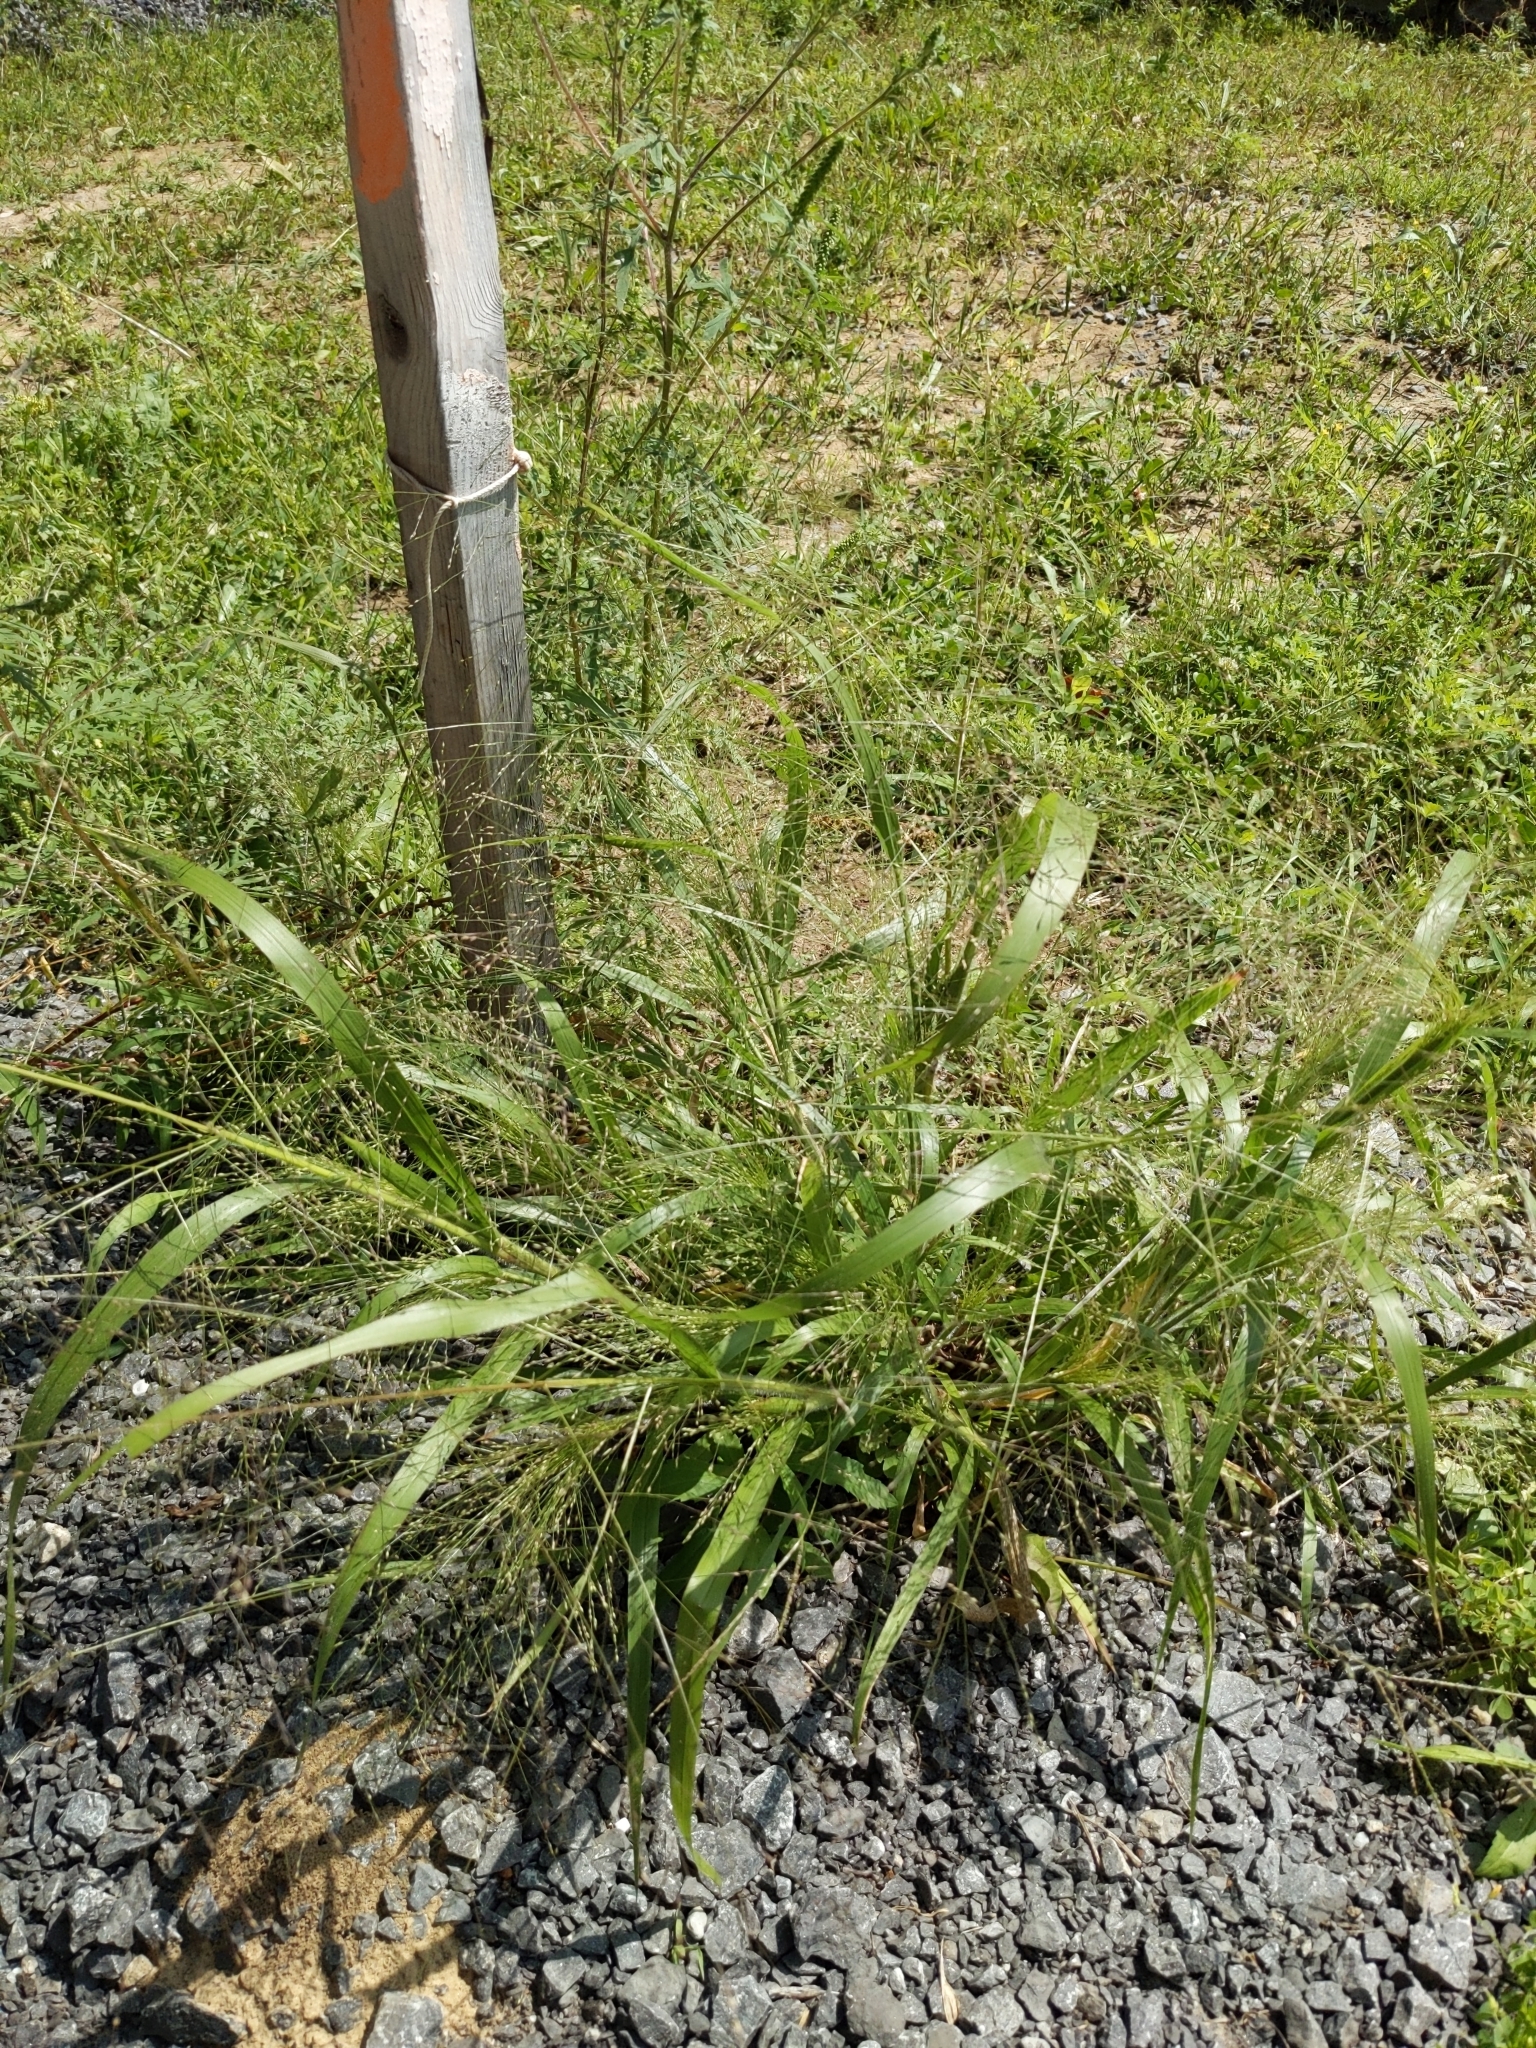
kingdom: Plantae
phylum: Tracheophyta
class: Liliopsida
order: Poales
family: Poaceae
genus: Panicum
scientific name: Panicum capillare
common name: Witch-grass
